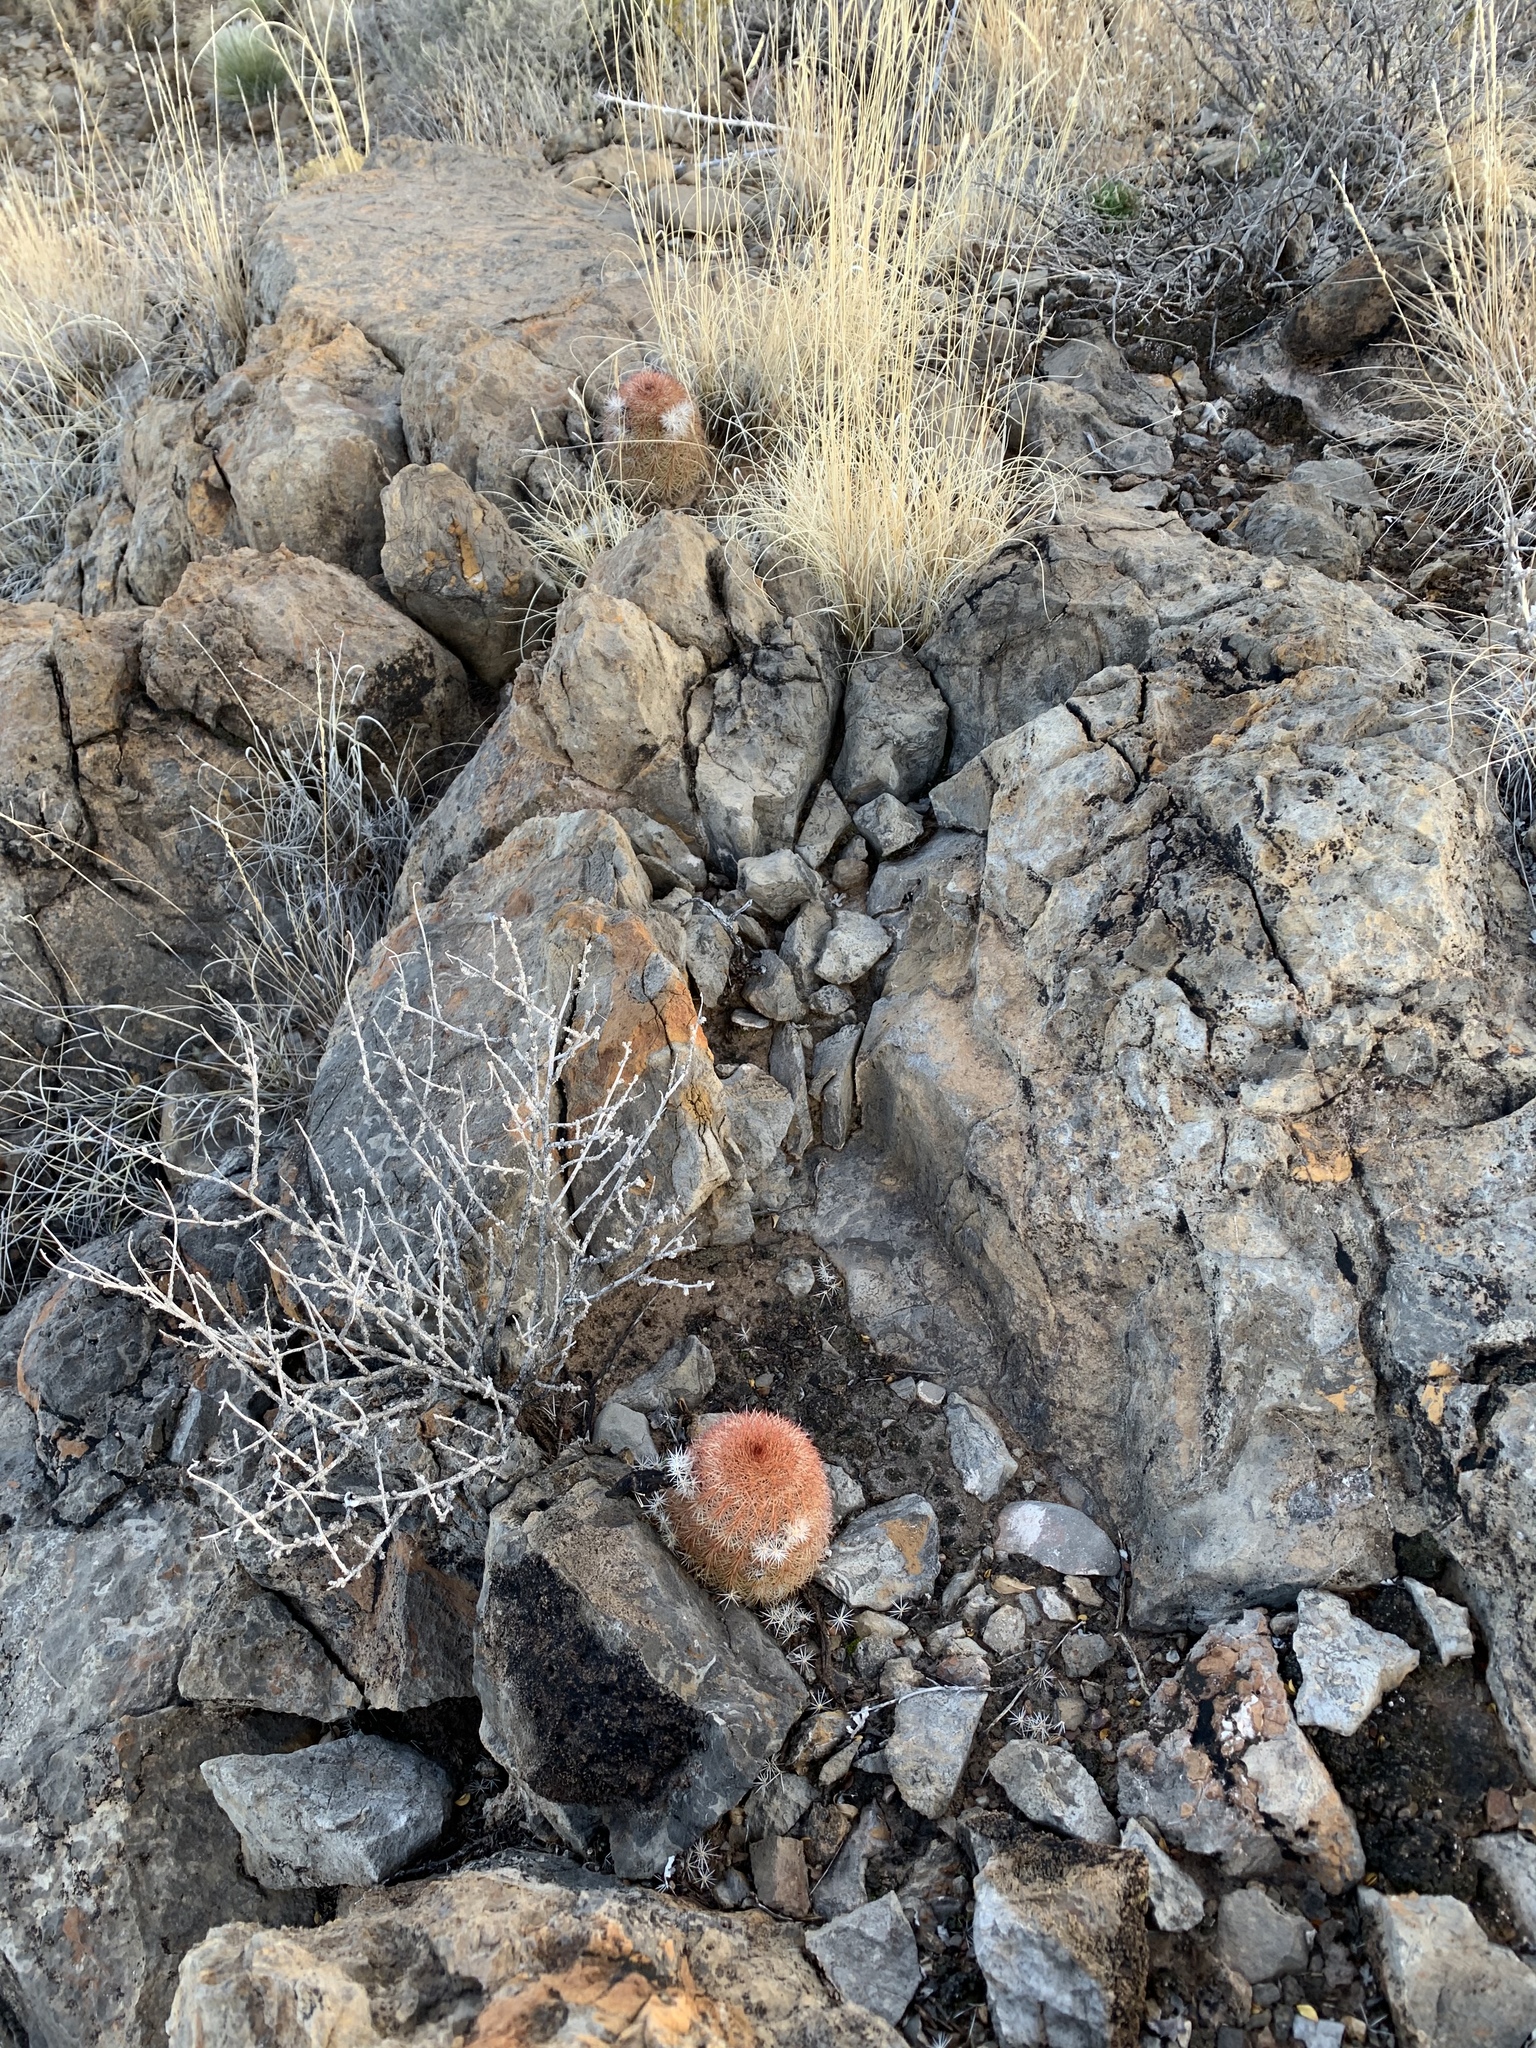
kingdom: Plantae
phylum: Tracheophyta
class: Magnoliopsida
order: Caryophyllales
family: Cactaceae
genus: Echinocereus
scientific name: Echinocereus dasyacanthus
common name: Spiny hedgehog cactus
